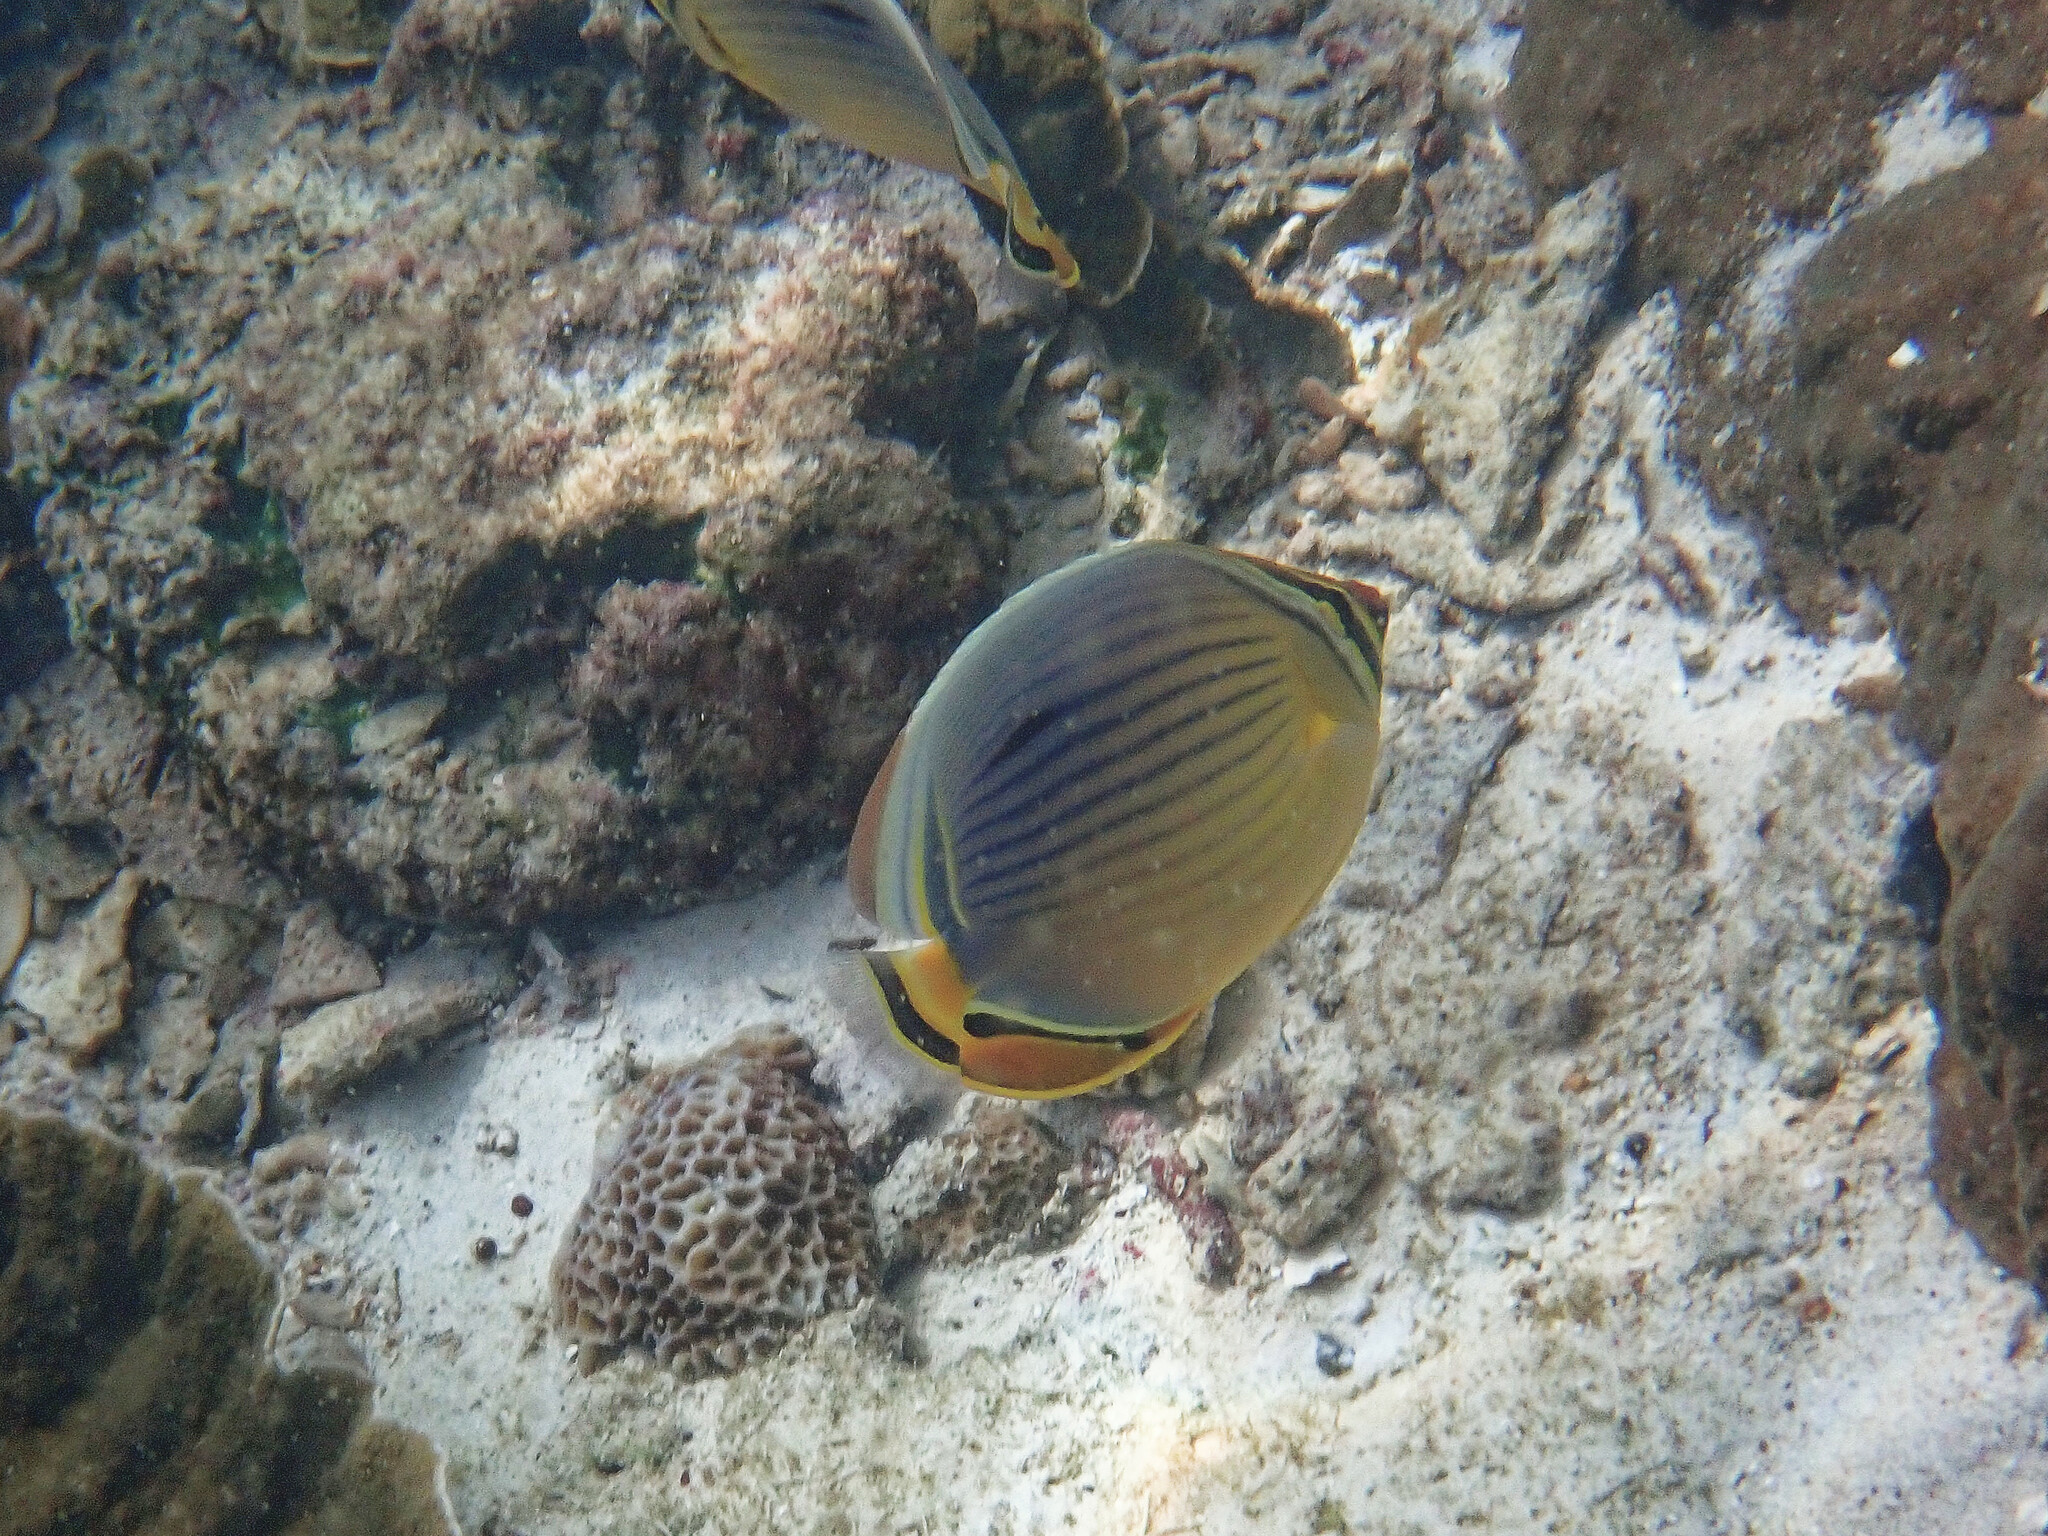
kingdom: Animalia
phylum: Chordata
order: Perciformes
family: Chaetodontidae
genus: Chaetodon
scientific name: Chaetodon trifasciatus
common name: Redfin butterflyfish
